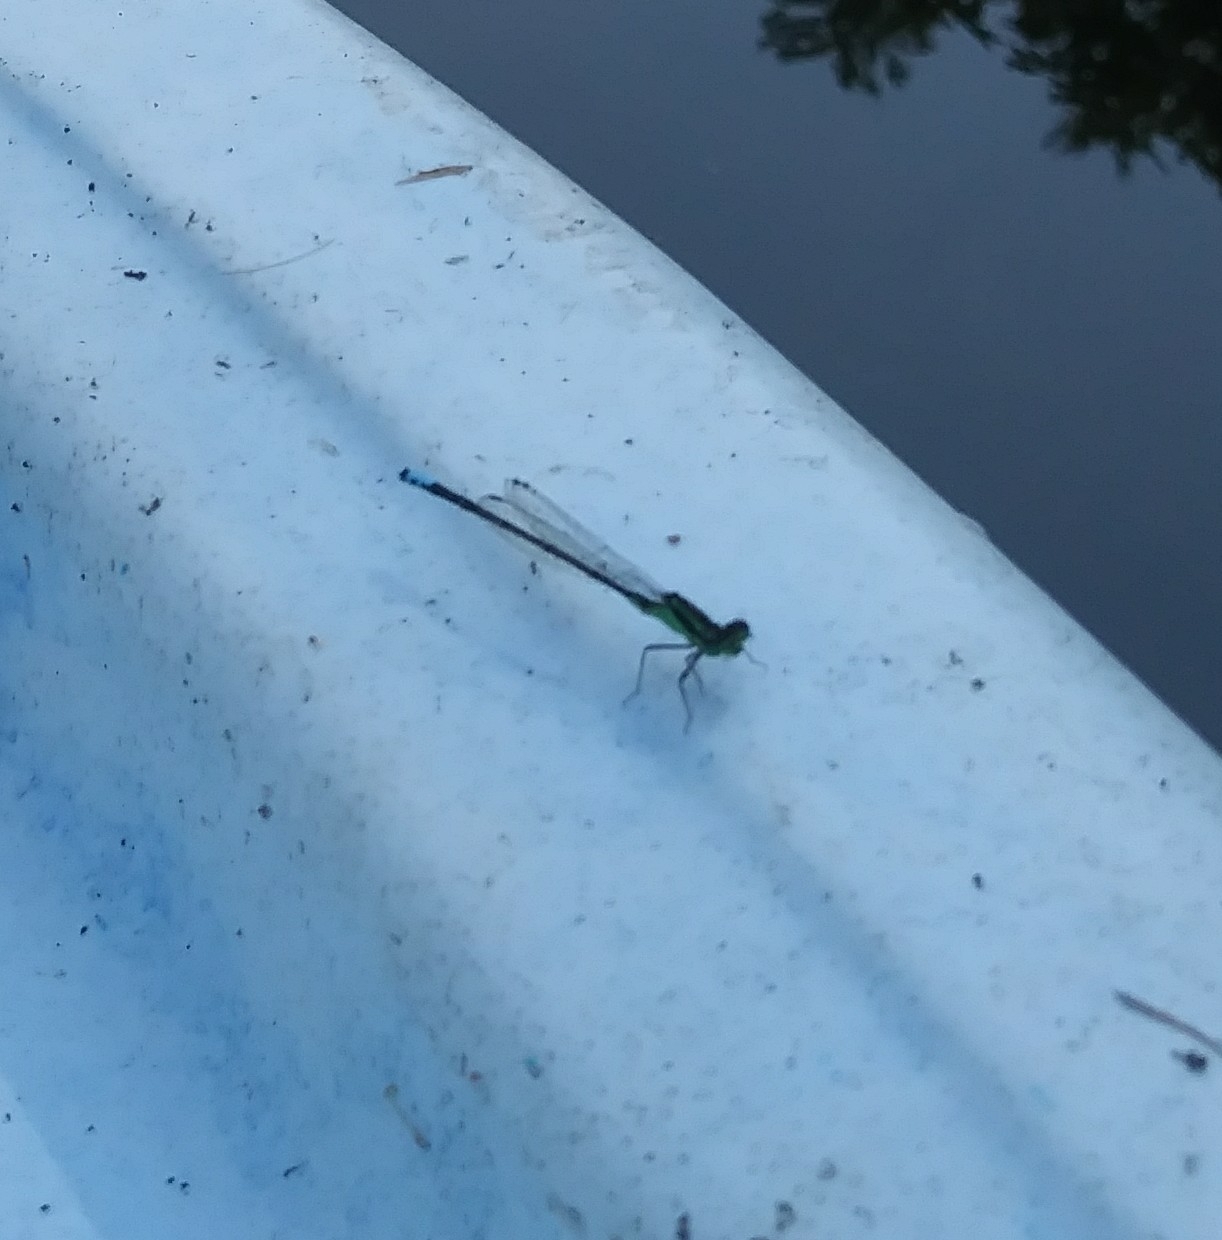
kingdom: Animalia
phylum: Arthropoda
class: Insecta
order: Odonata
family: Coenagrionidae
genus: Ischnura
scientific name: Ischnura verticalis
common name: Eastern forktail
